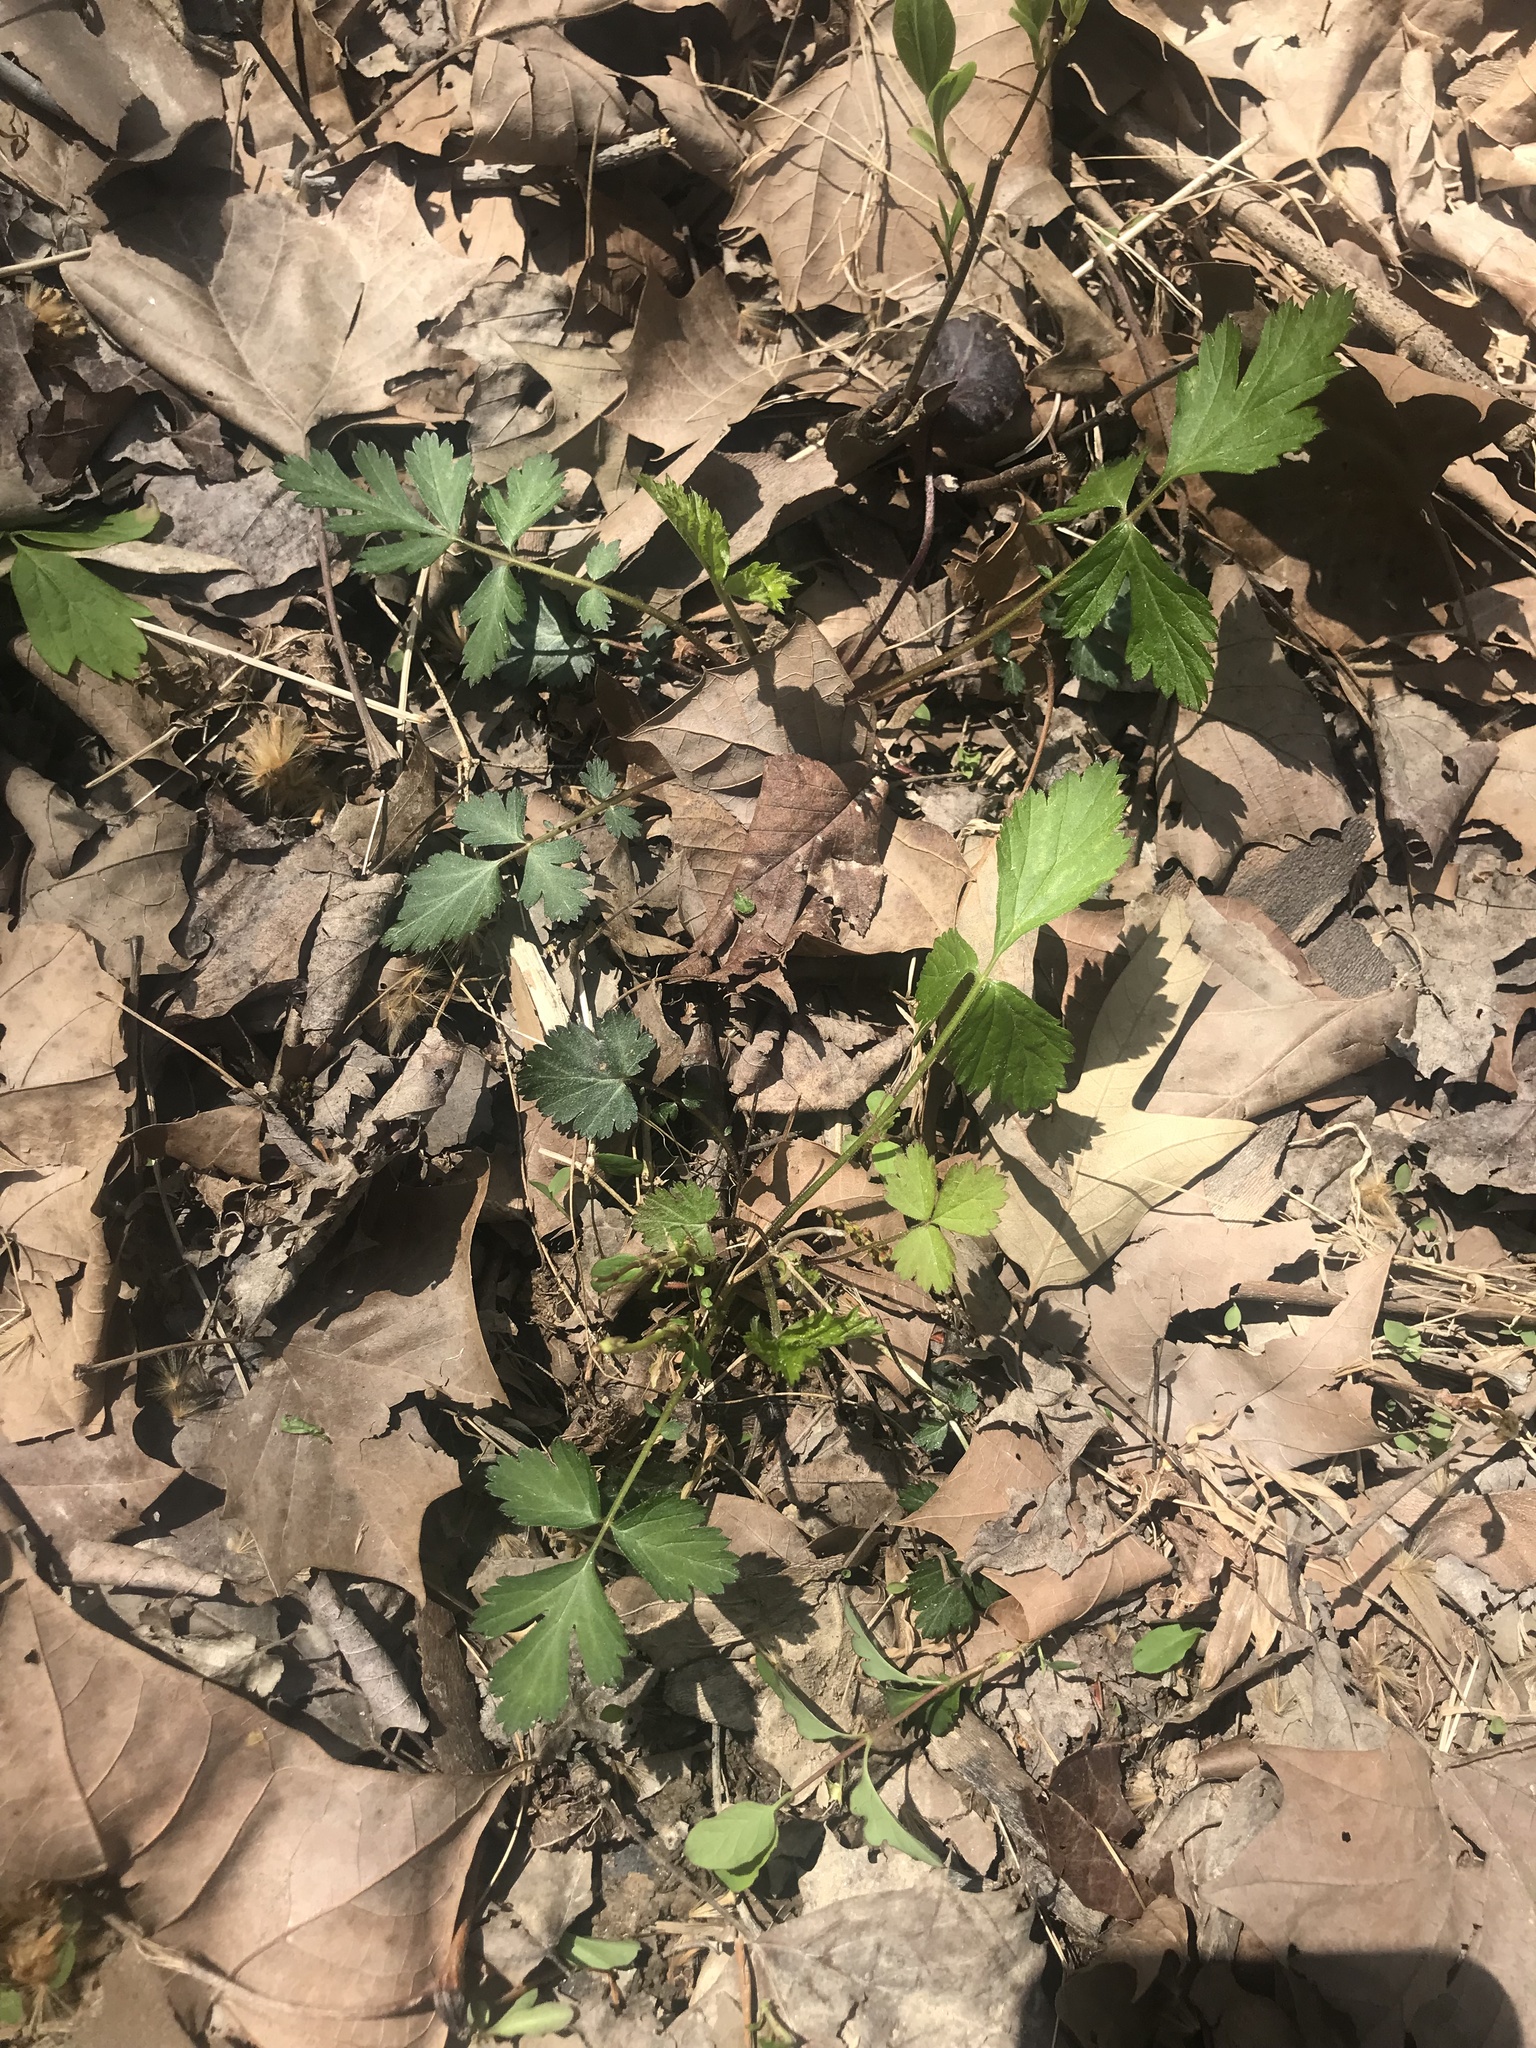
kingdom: Plantae
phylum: Tracheophyta
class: Magnoliopsida
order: Rosales
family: Rosaceae
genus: Geum
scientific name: Geum canadense
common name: White avens
